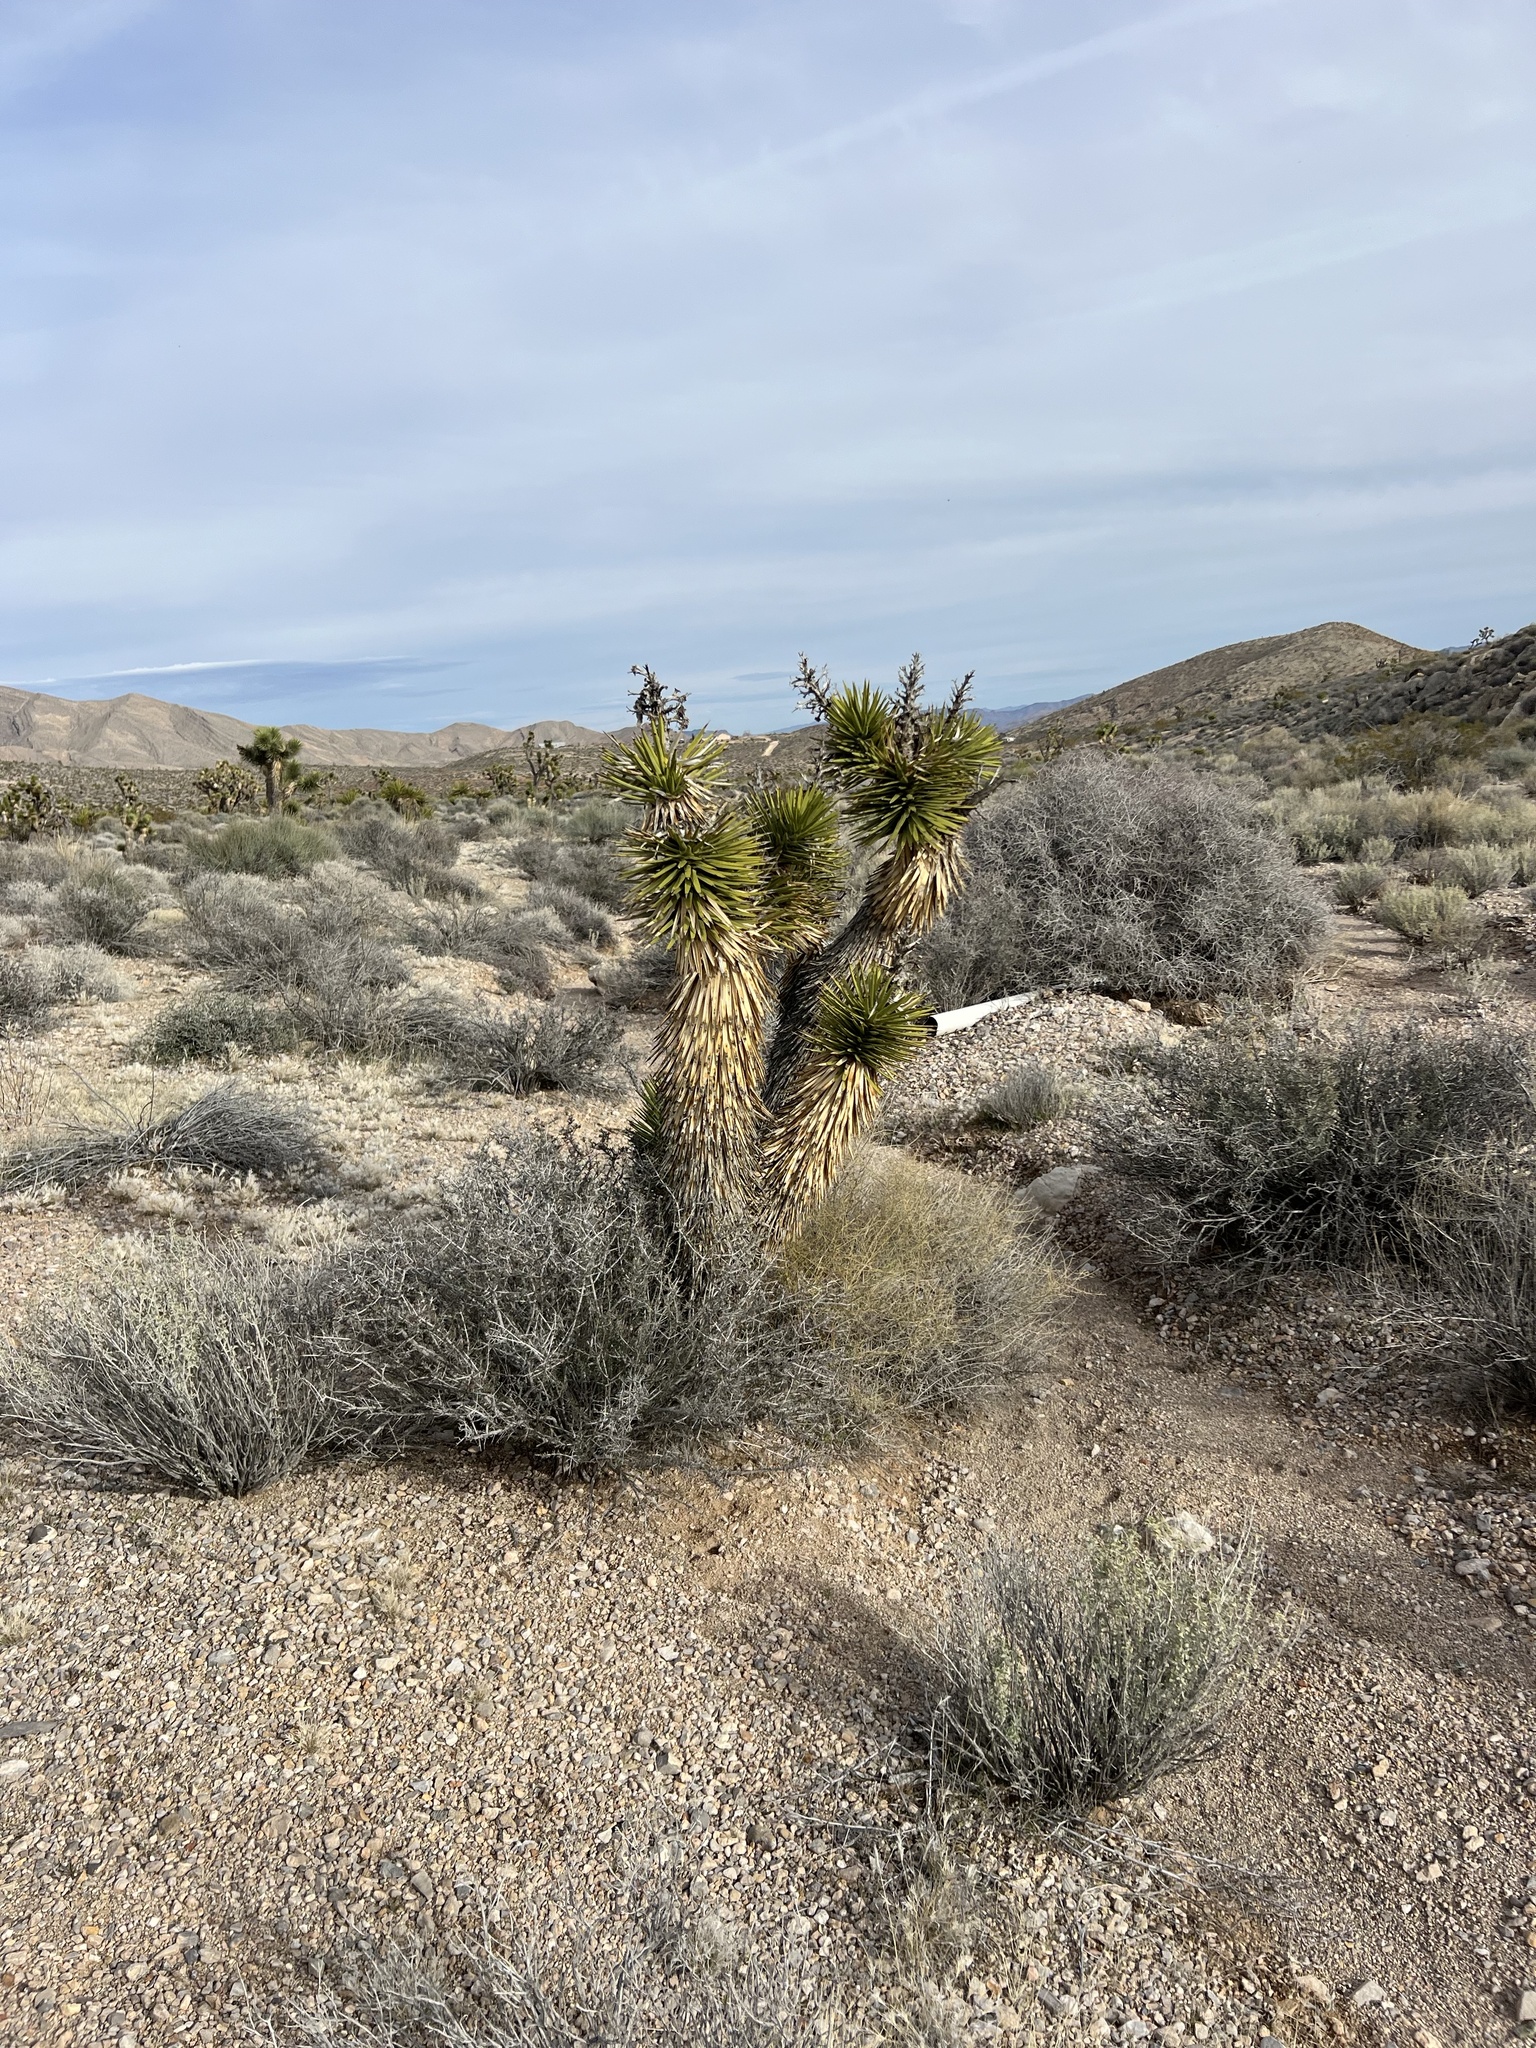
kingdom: Plantae
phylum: Tracheophyta
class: Liliopsida
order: Asparagales
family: Asparagaceae
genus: Yucca
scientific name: Yucca brevifolia
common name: Joshua tree
